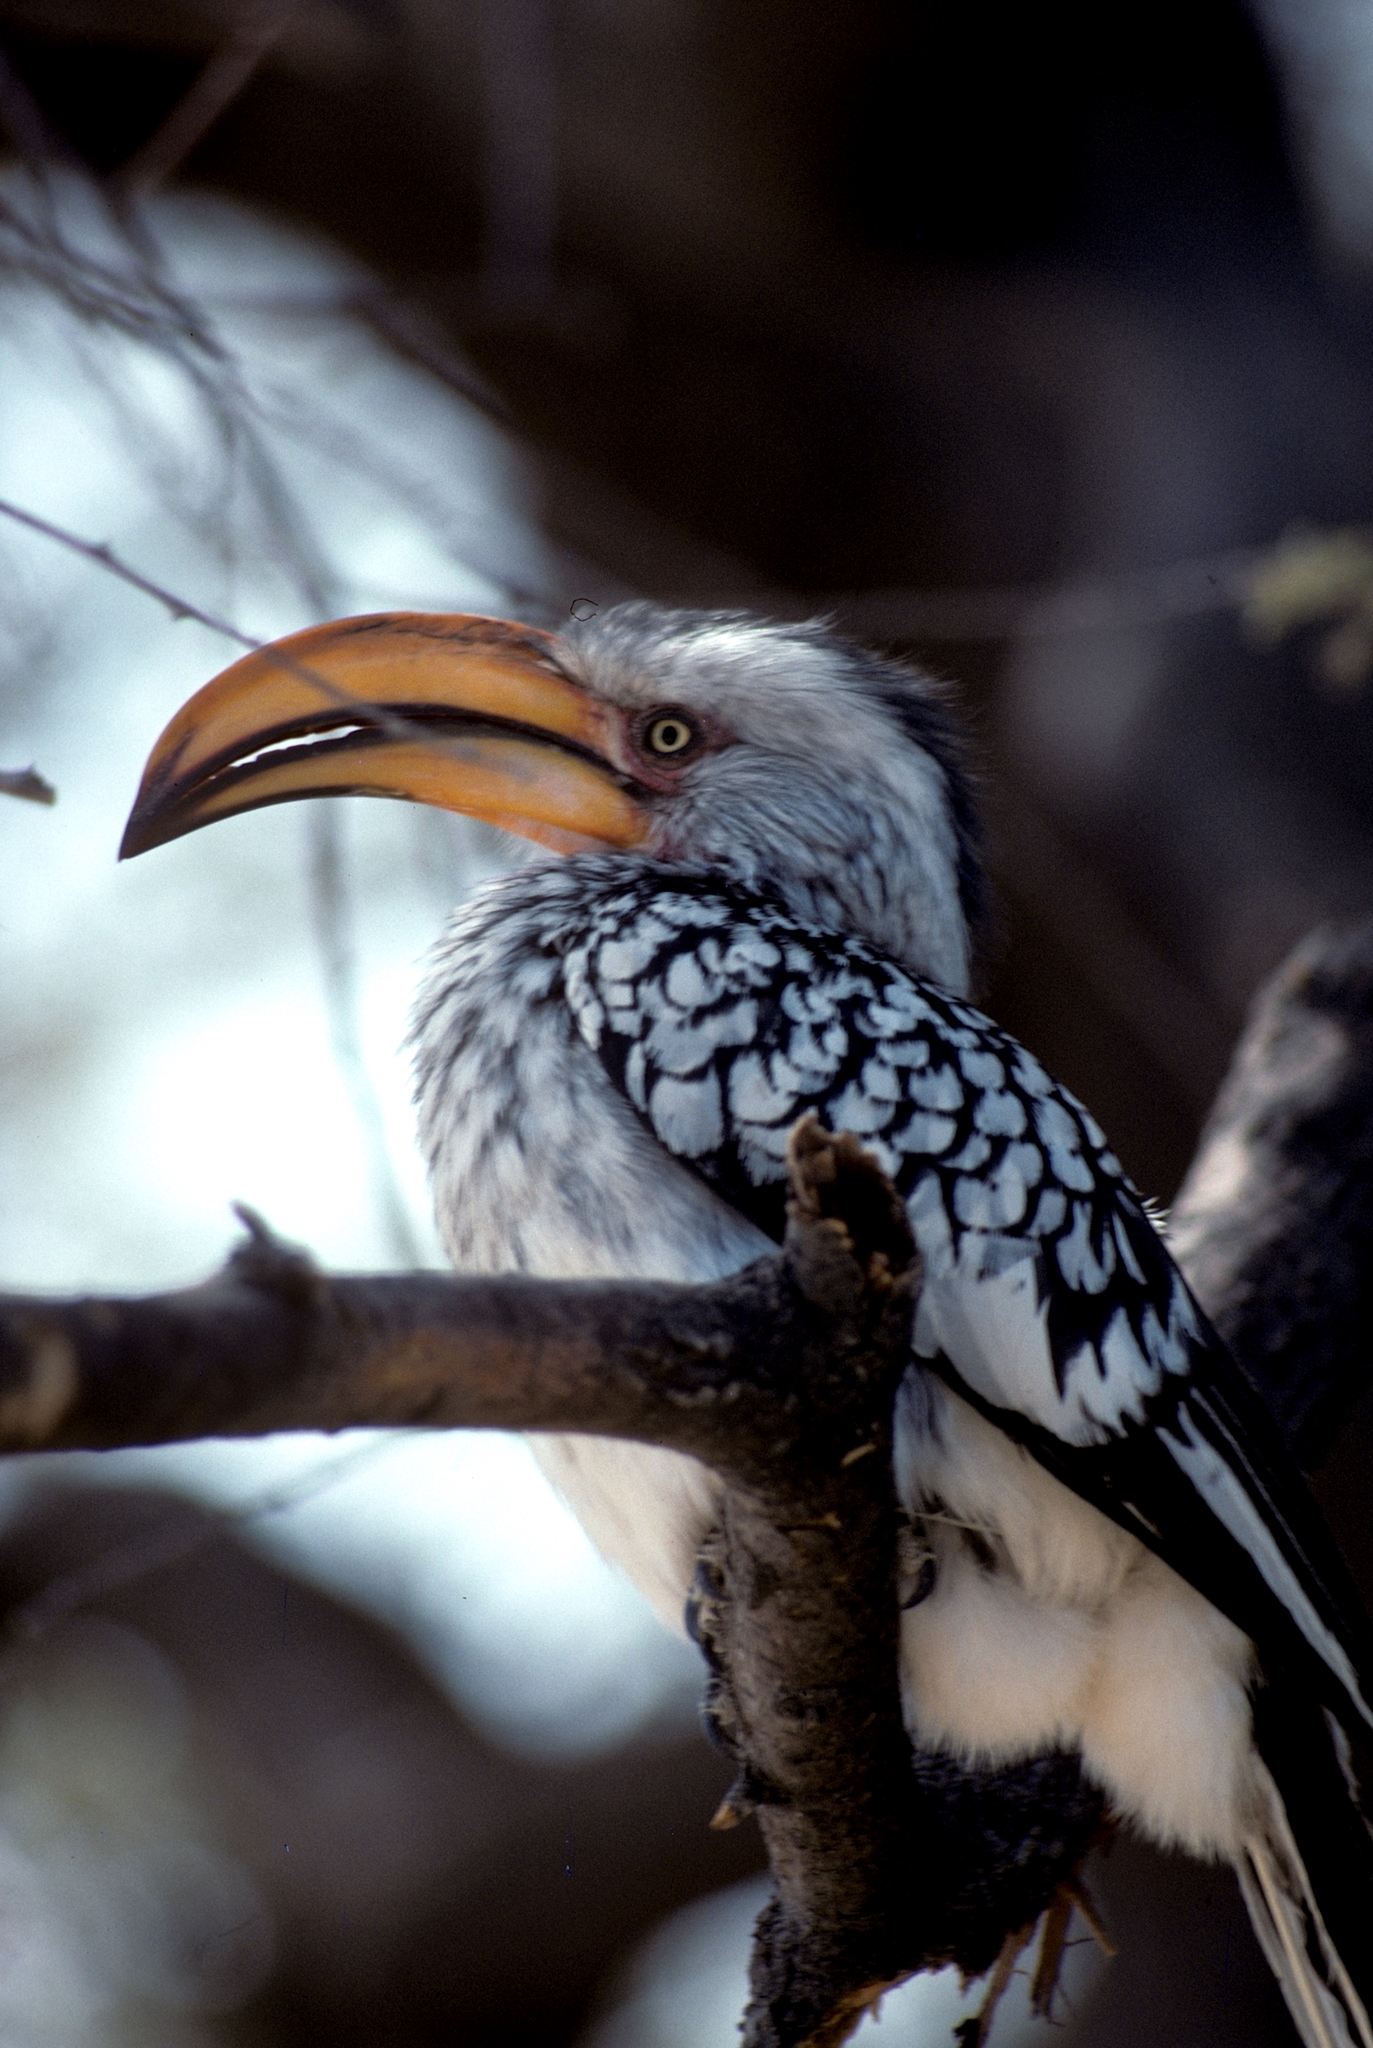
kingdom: Animalia
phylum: Chordata
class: Aves
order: Bucerotiformes
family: Bucerotidae
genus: Tockus
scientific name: Tockus leucomelas
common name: Southern yellow-billed hornbill
